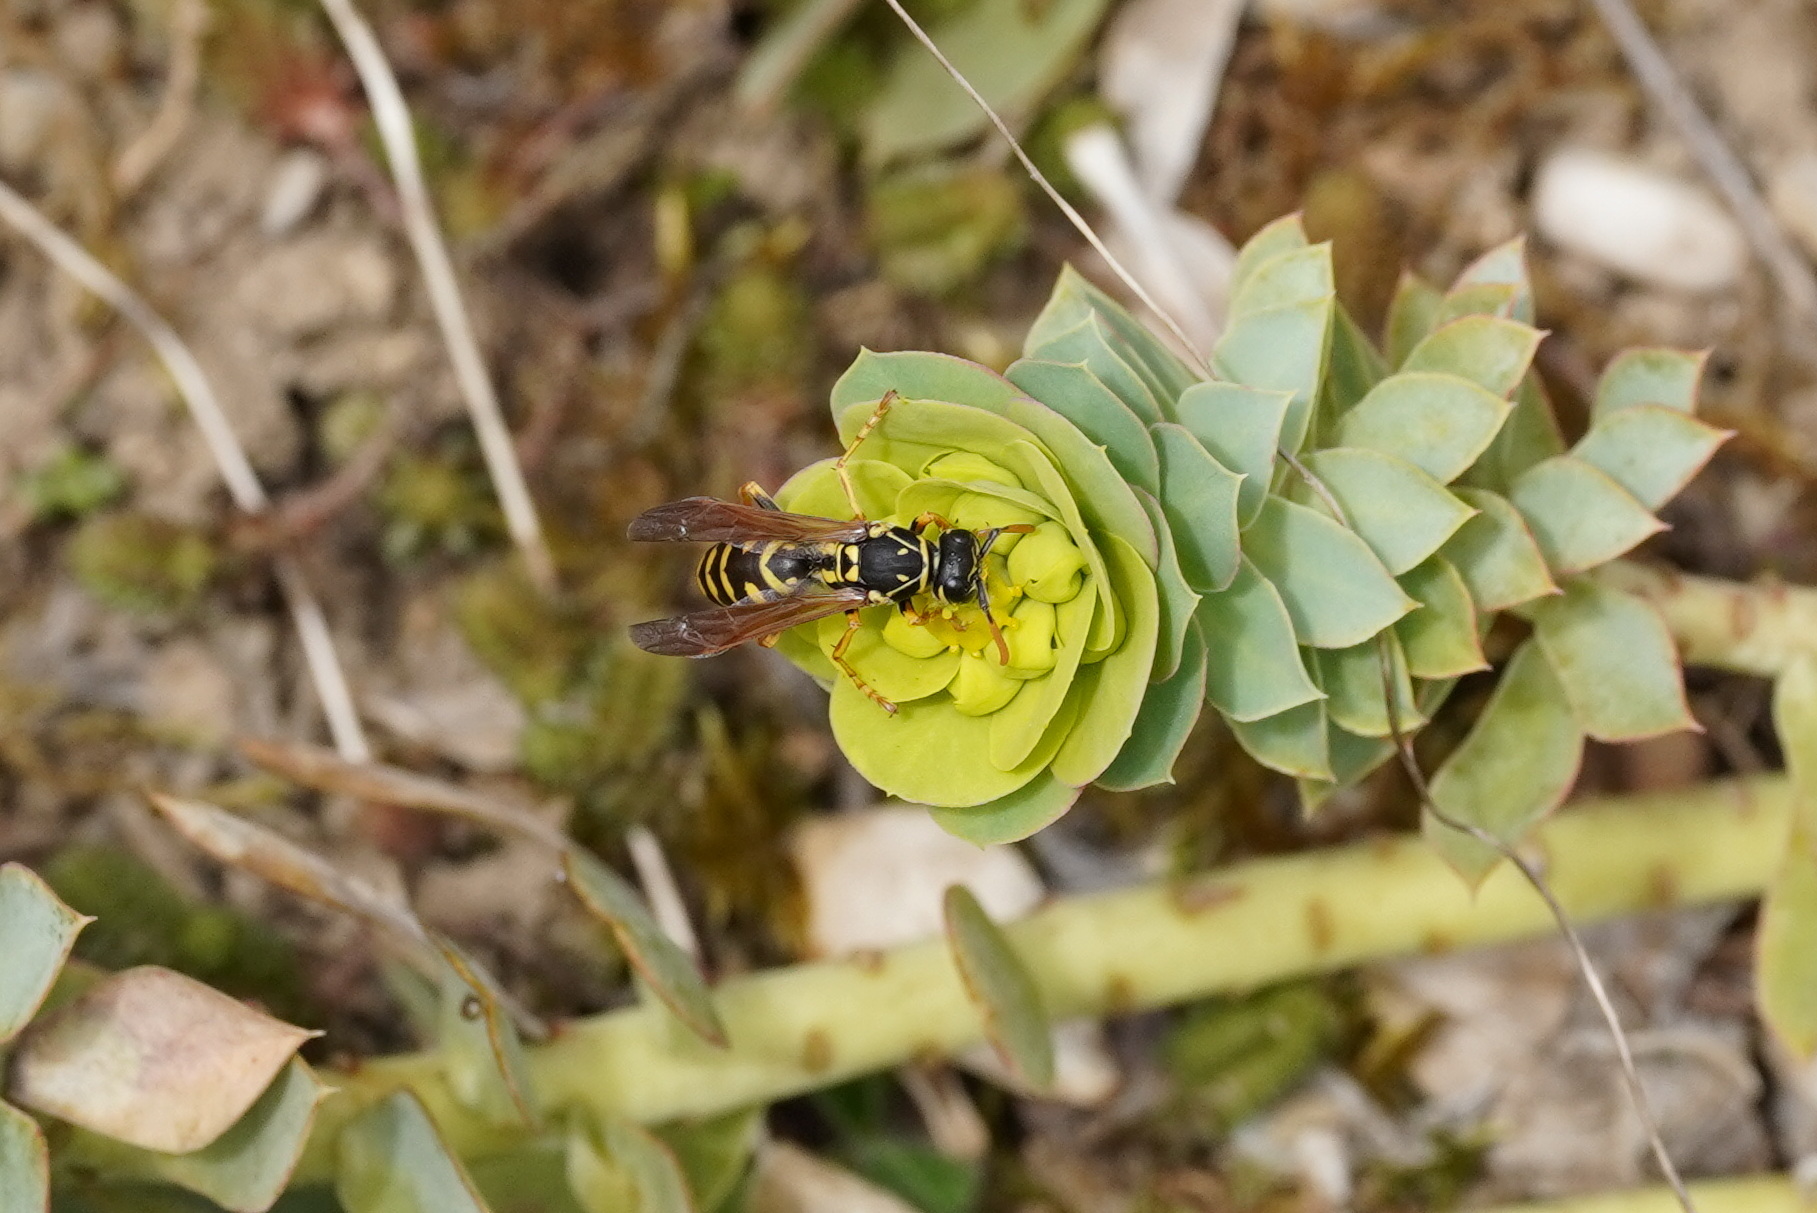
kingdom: Animalia
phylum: Arthropoda
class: Insecta
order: Hymenoptera
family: Eumenidae
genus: Polistes
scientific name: Polistes dominula
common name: Paper wasp
